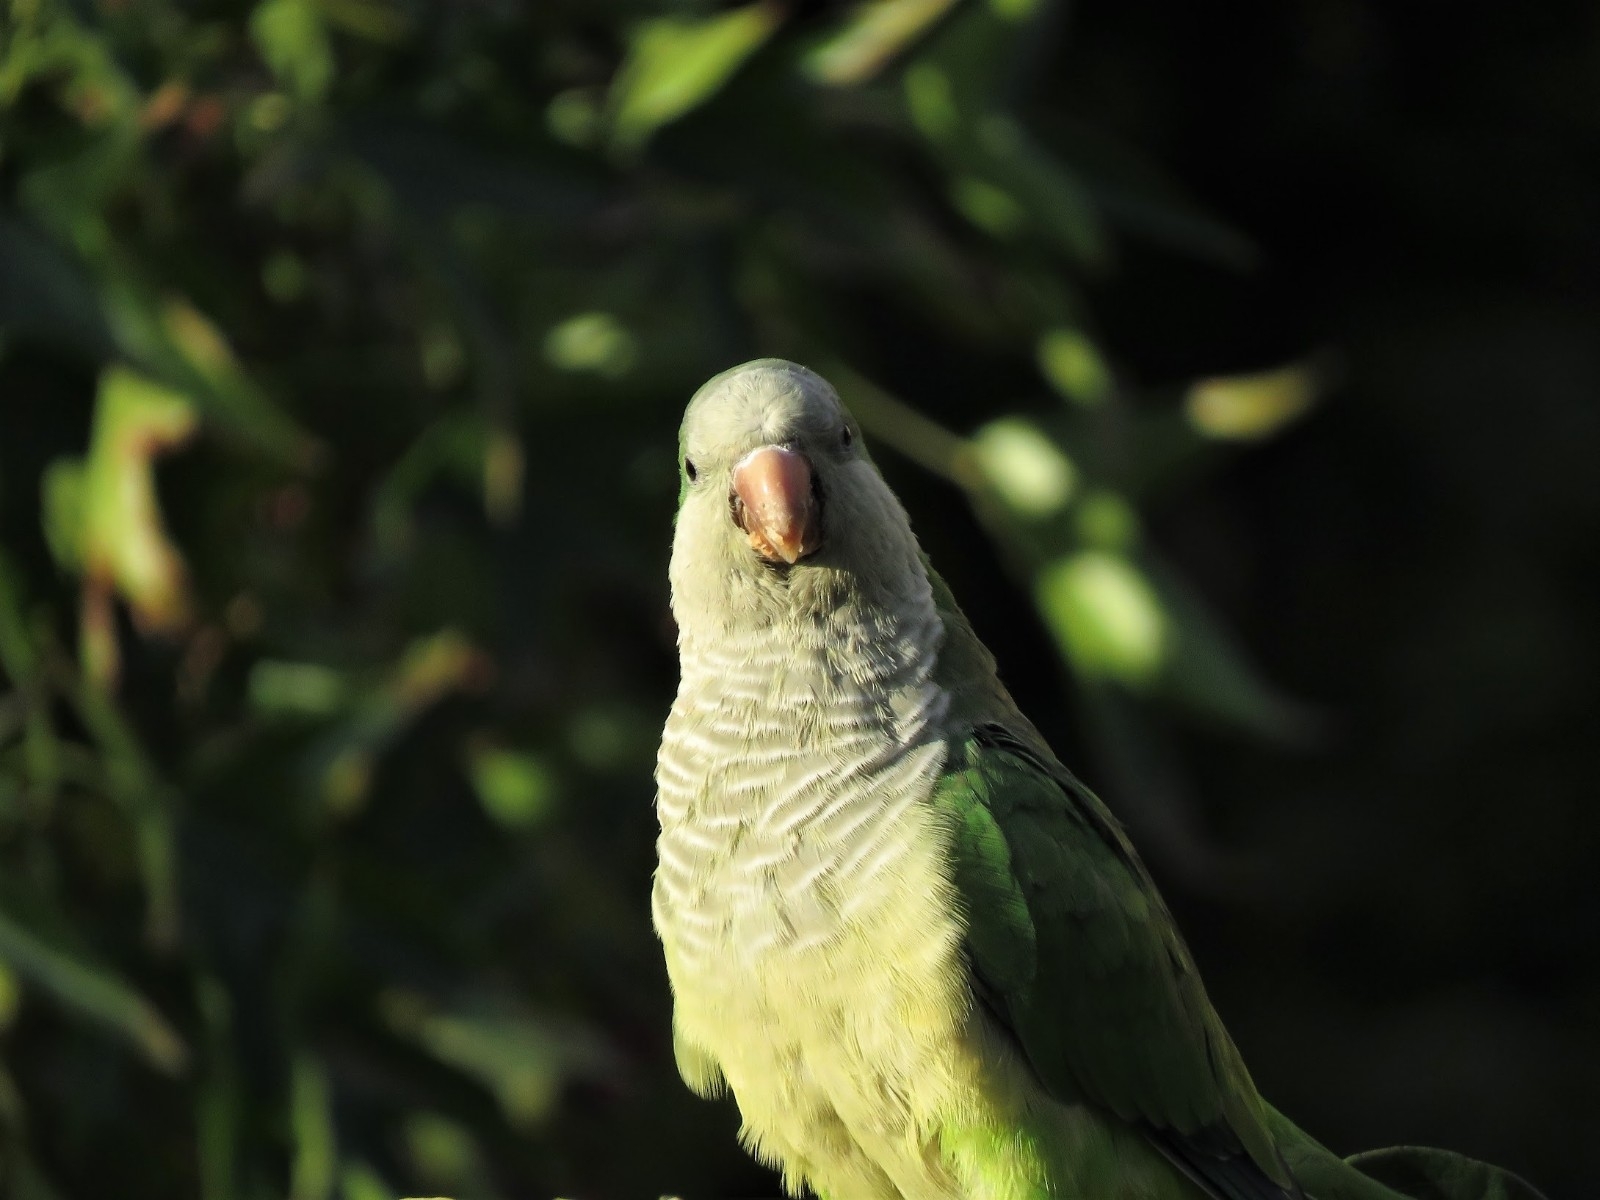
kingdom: Animalia
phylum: Chordata
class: Aves
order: Psittaciformes
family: Psittacidae
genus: Myiopsitta
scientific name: Myiopsitta monachus
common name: Monk parakeet
